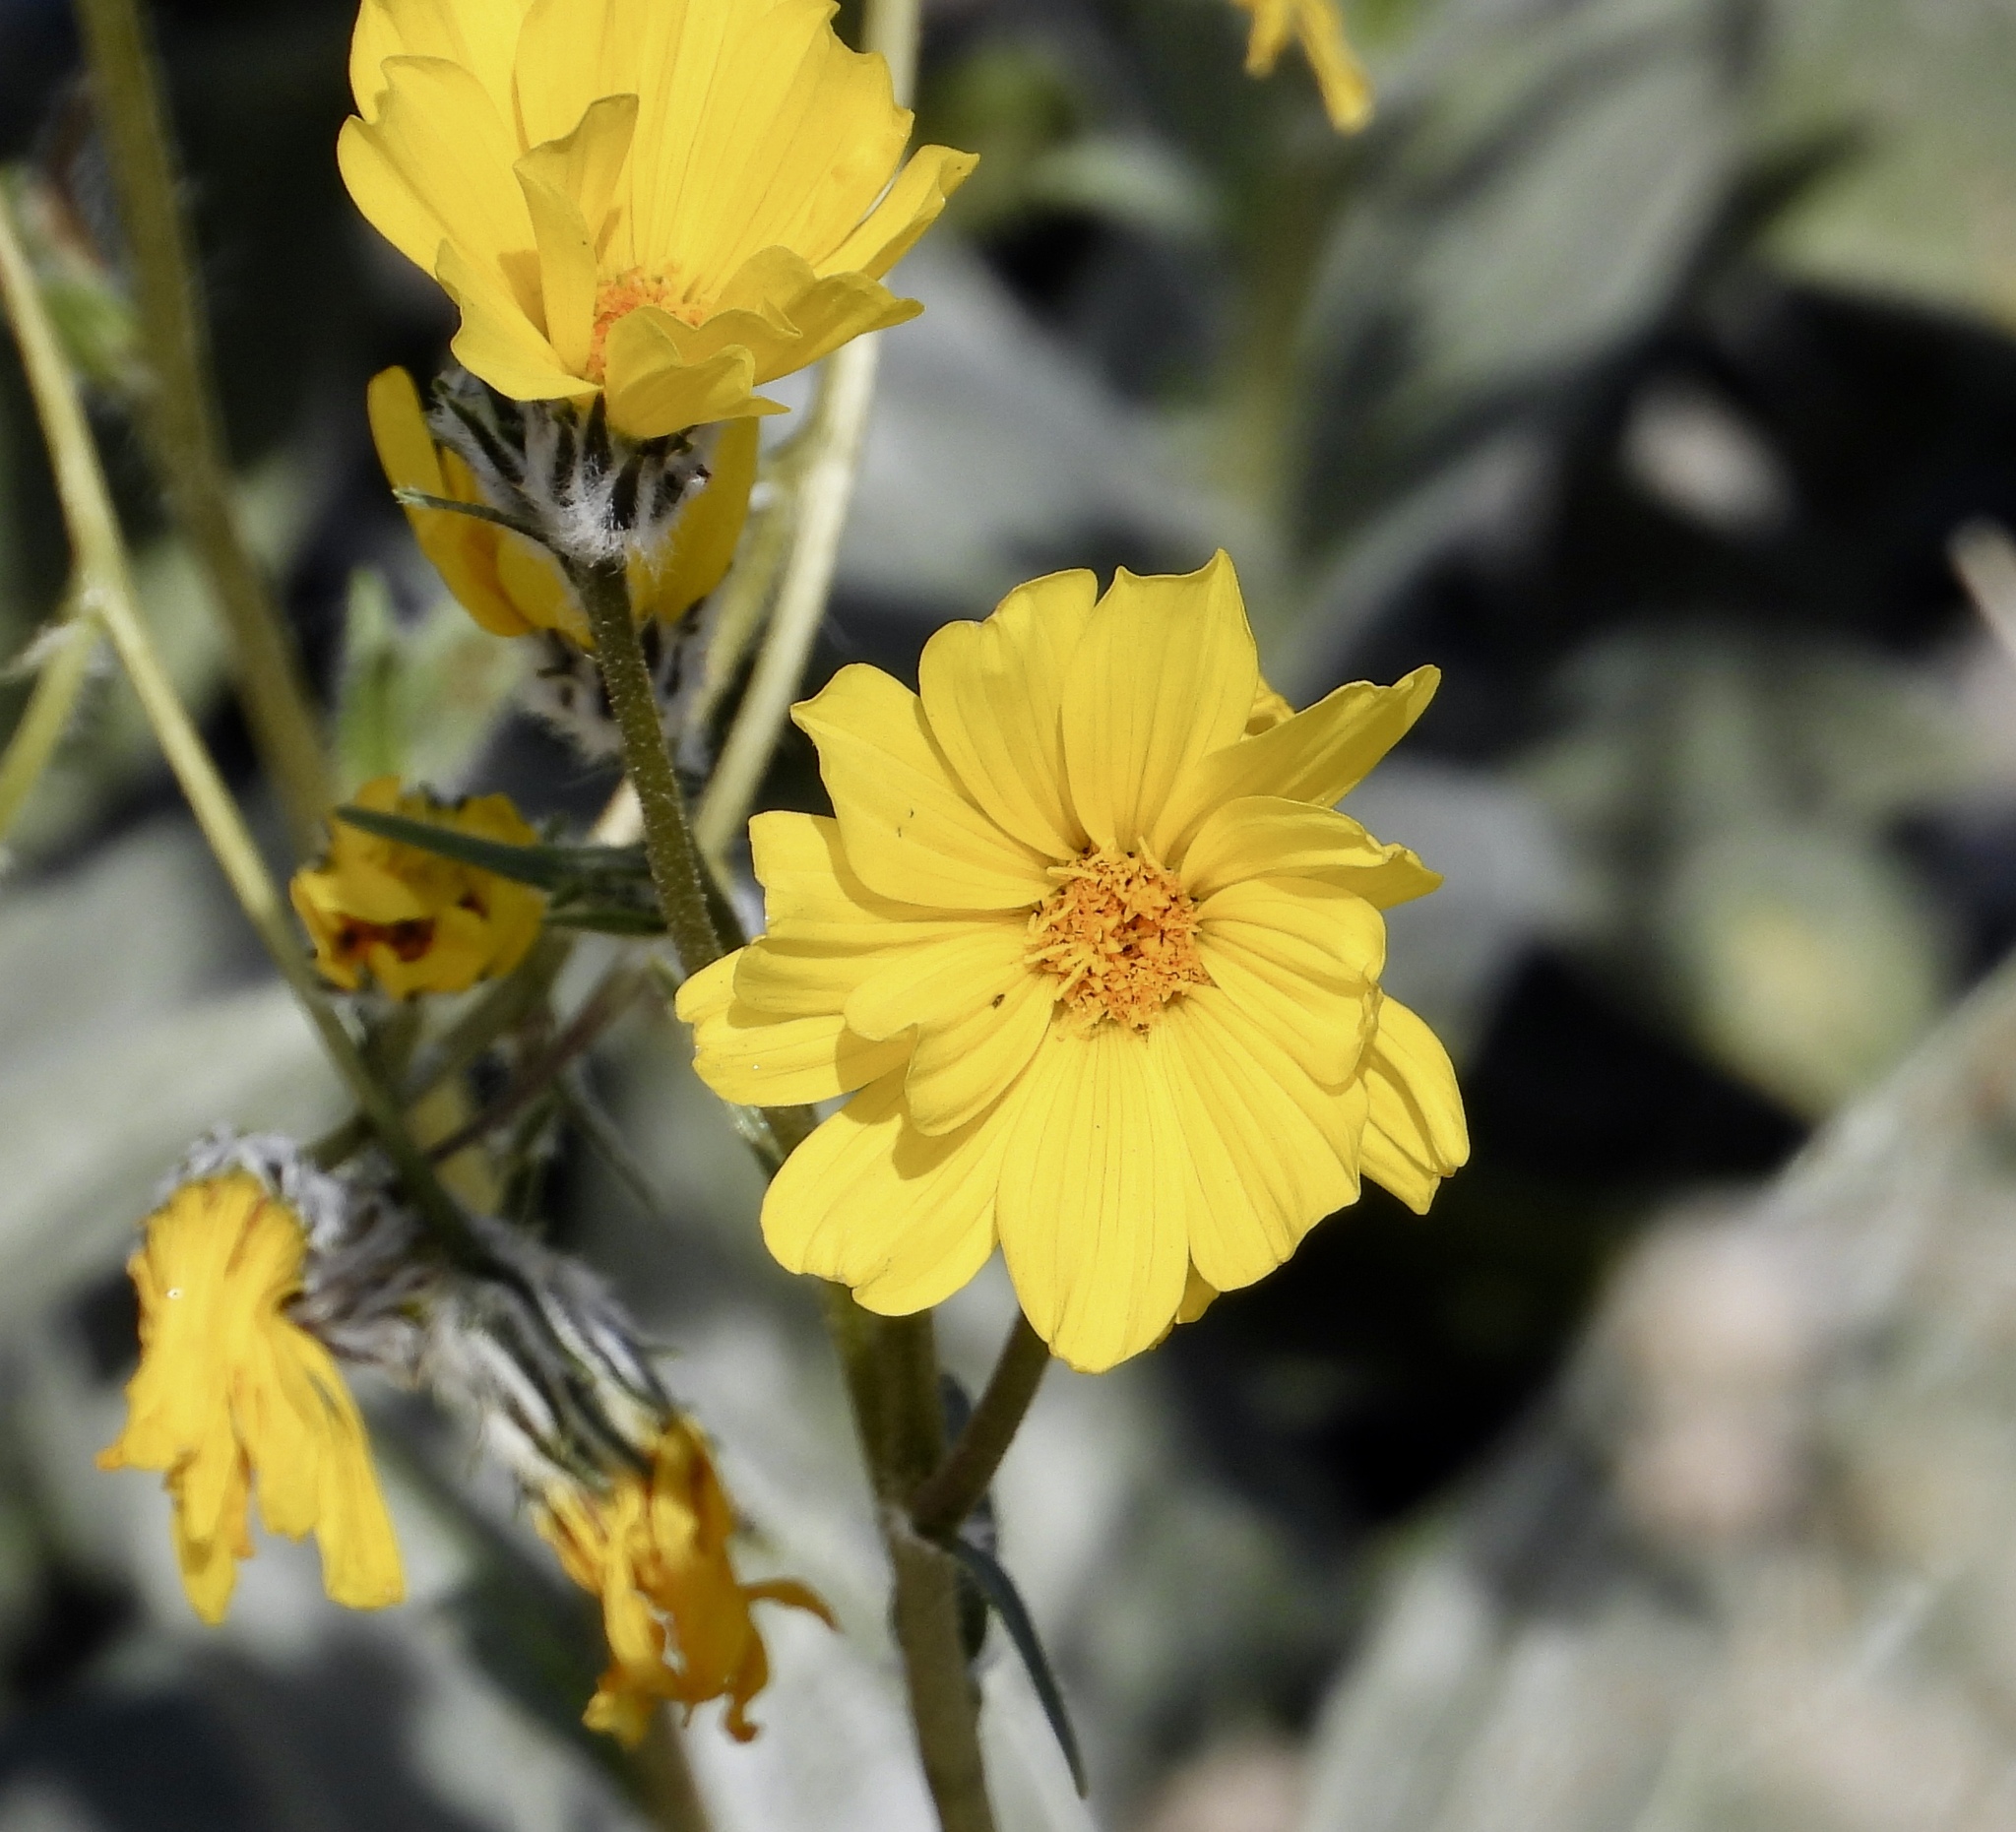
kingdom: Plantae
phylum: Tracheophyta
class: Magnoliopsida
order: Asterales
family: Asteraceae
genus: Geraea
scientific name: Geraea canescens
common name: Desert-gold
